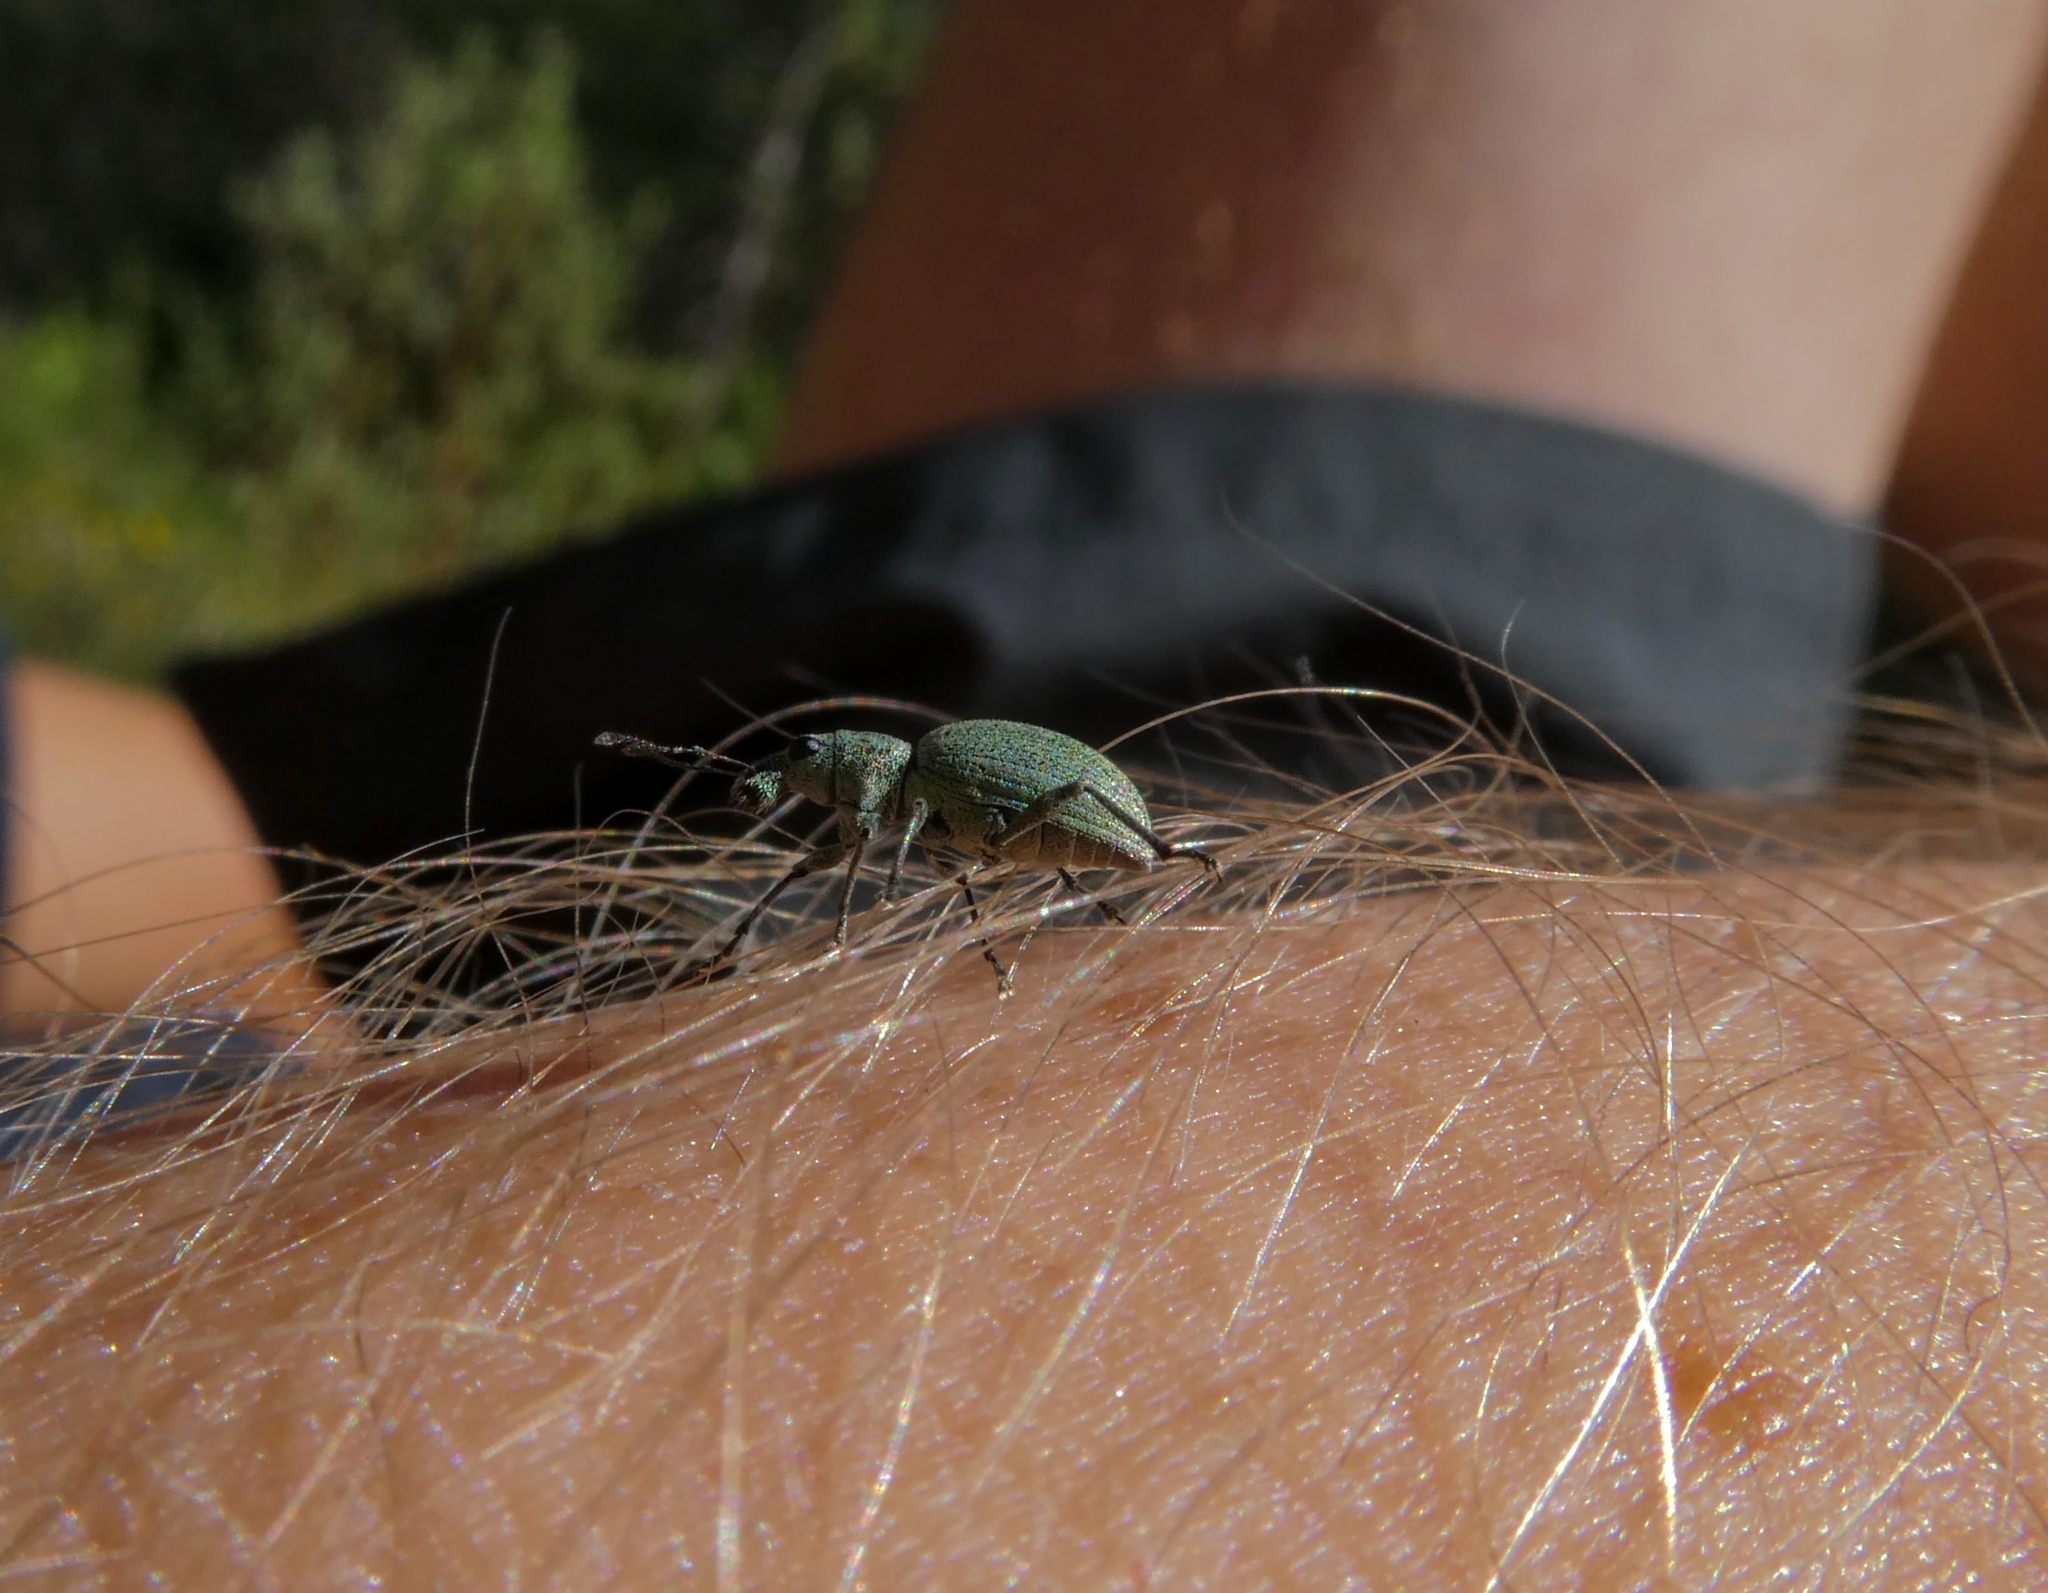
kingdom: Animalia
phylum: Arthropoda
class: Insecta
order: Coleoptera
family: Curculionidae
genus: Eusomus
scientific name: Eusomus ovulum
